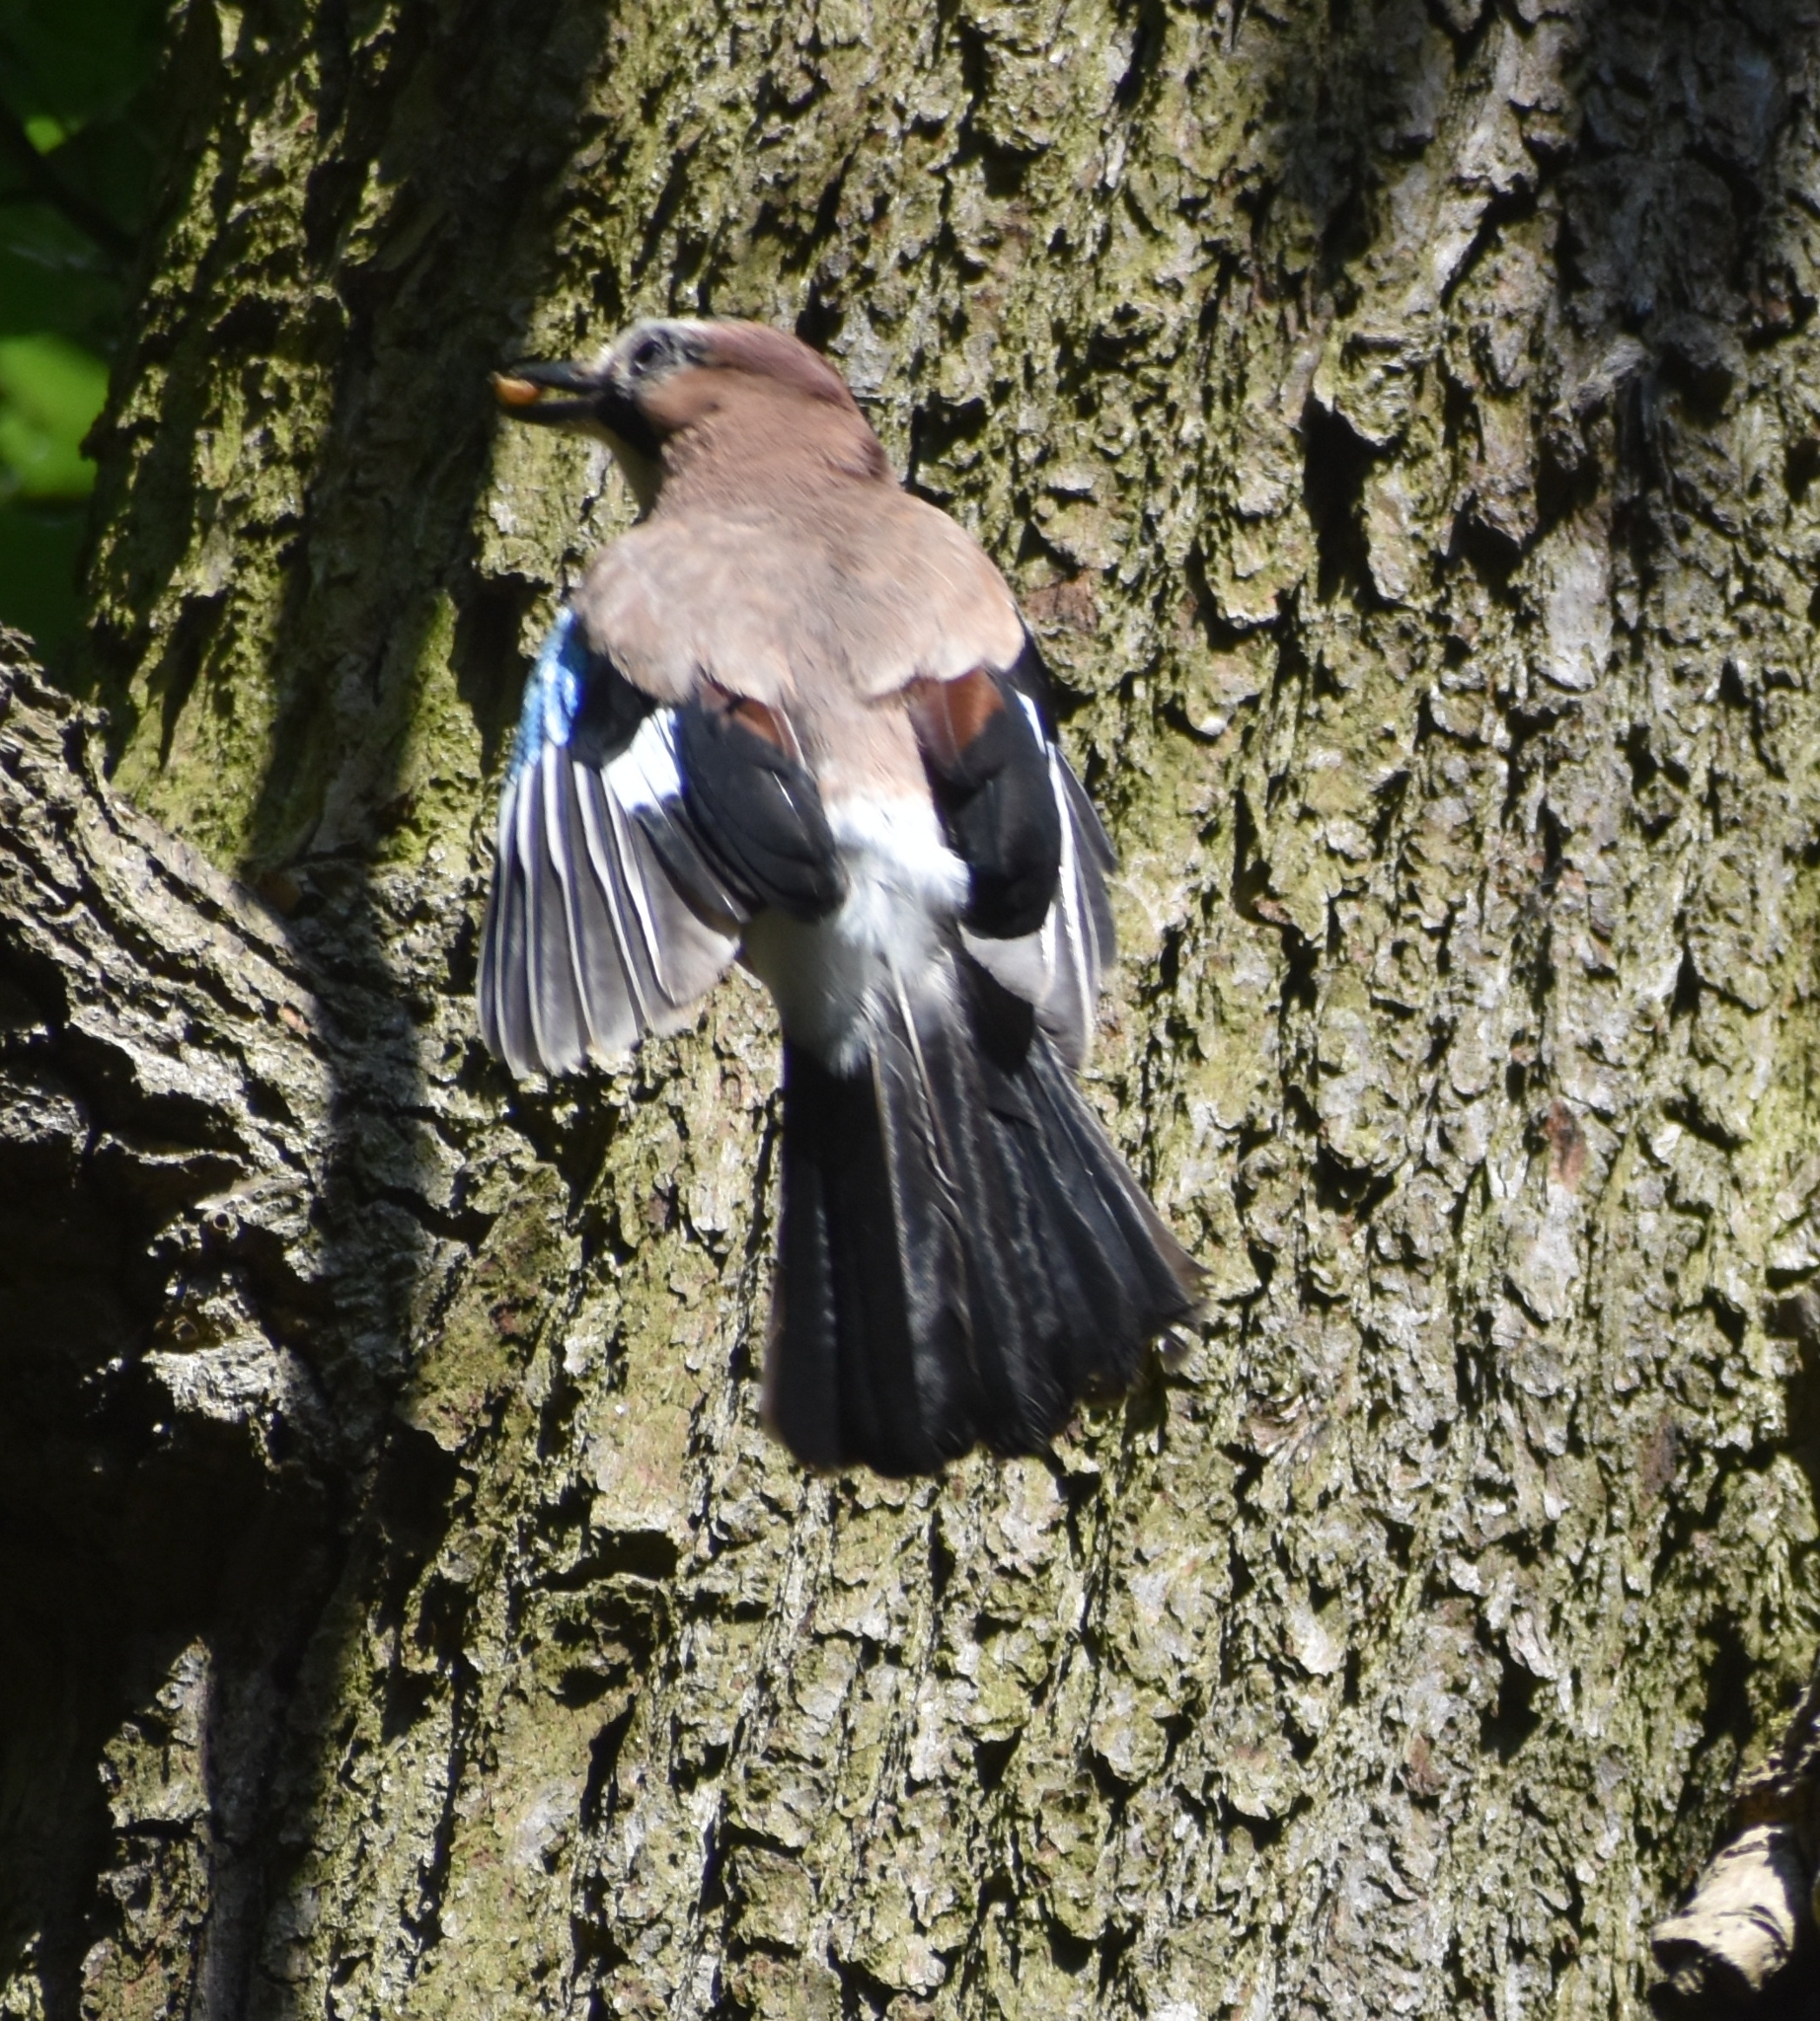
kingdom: Animalia
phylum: Chordata
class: Aves
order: Passeriformes
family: Corvidae
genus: Garrulus
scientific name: Garrulus glandarius
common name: Eurasian jay
